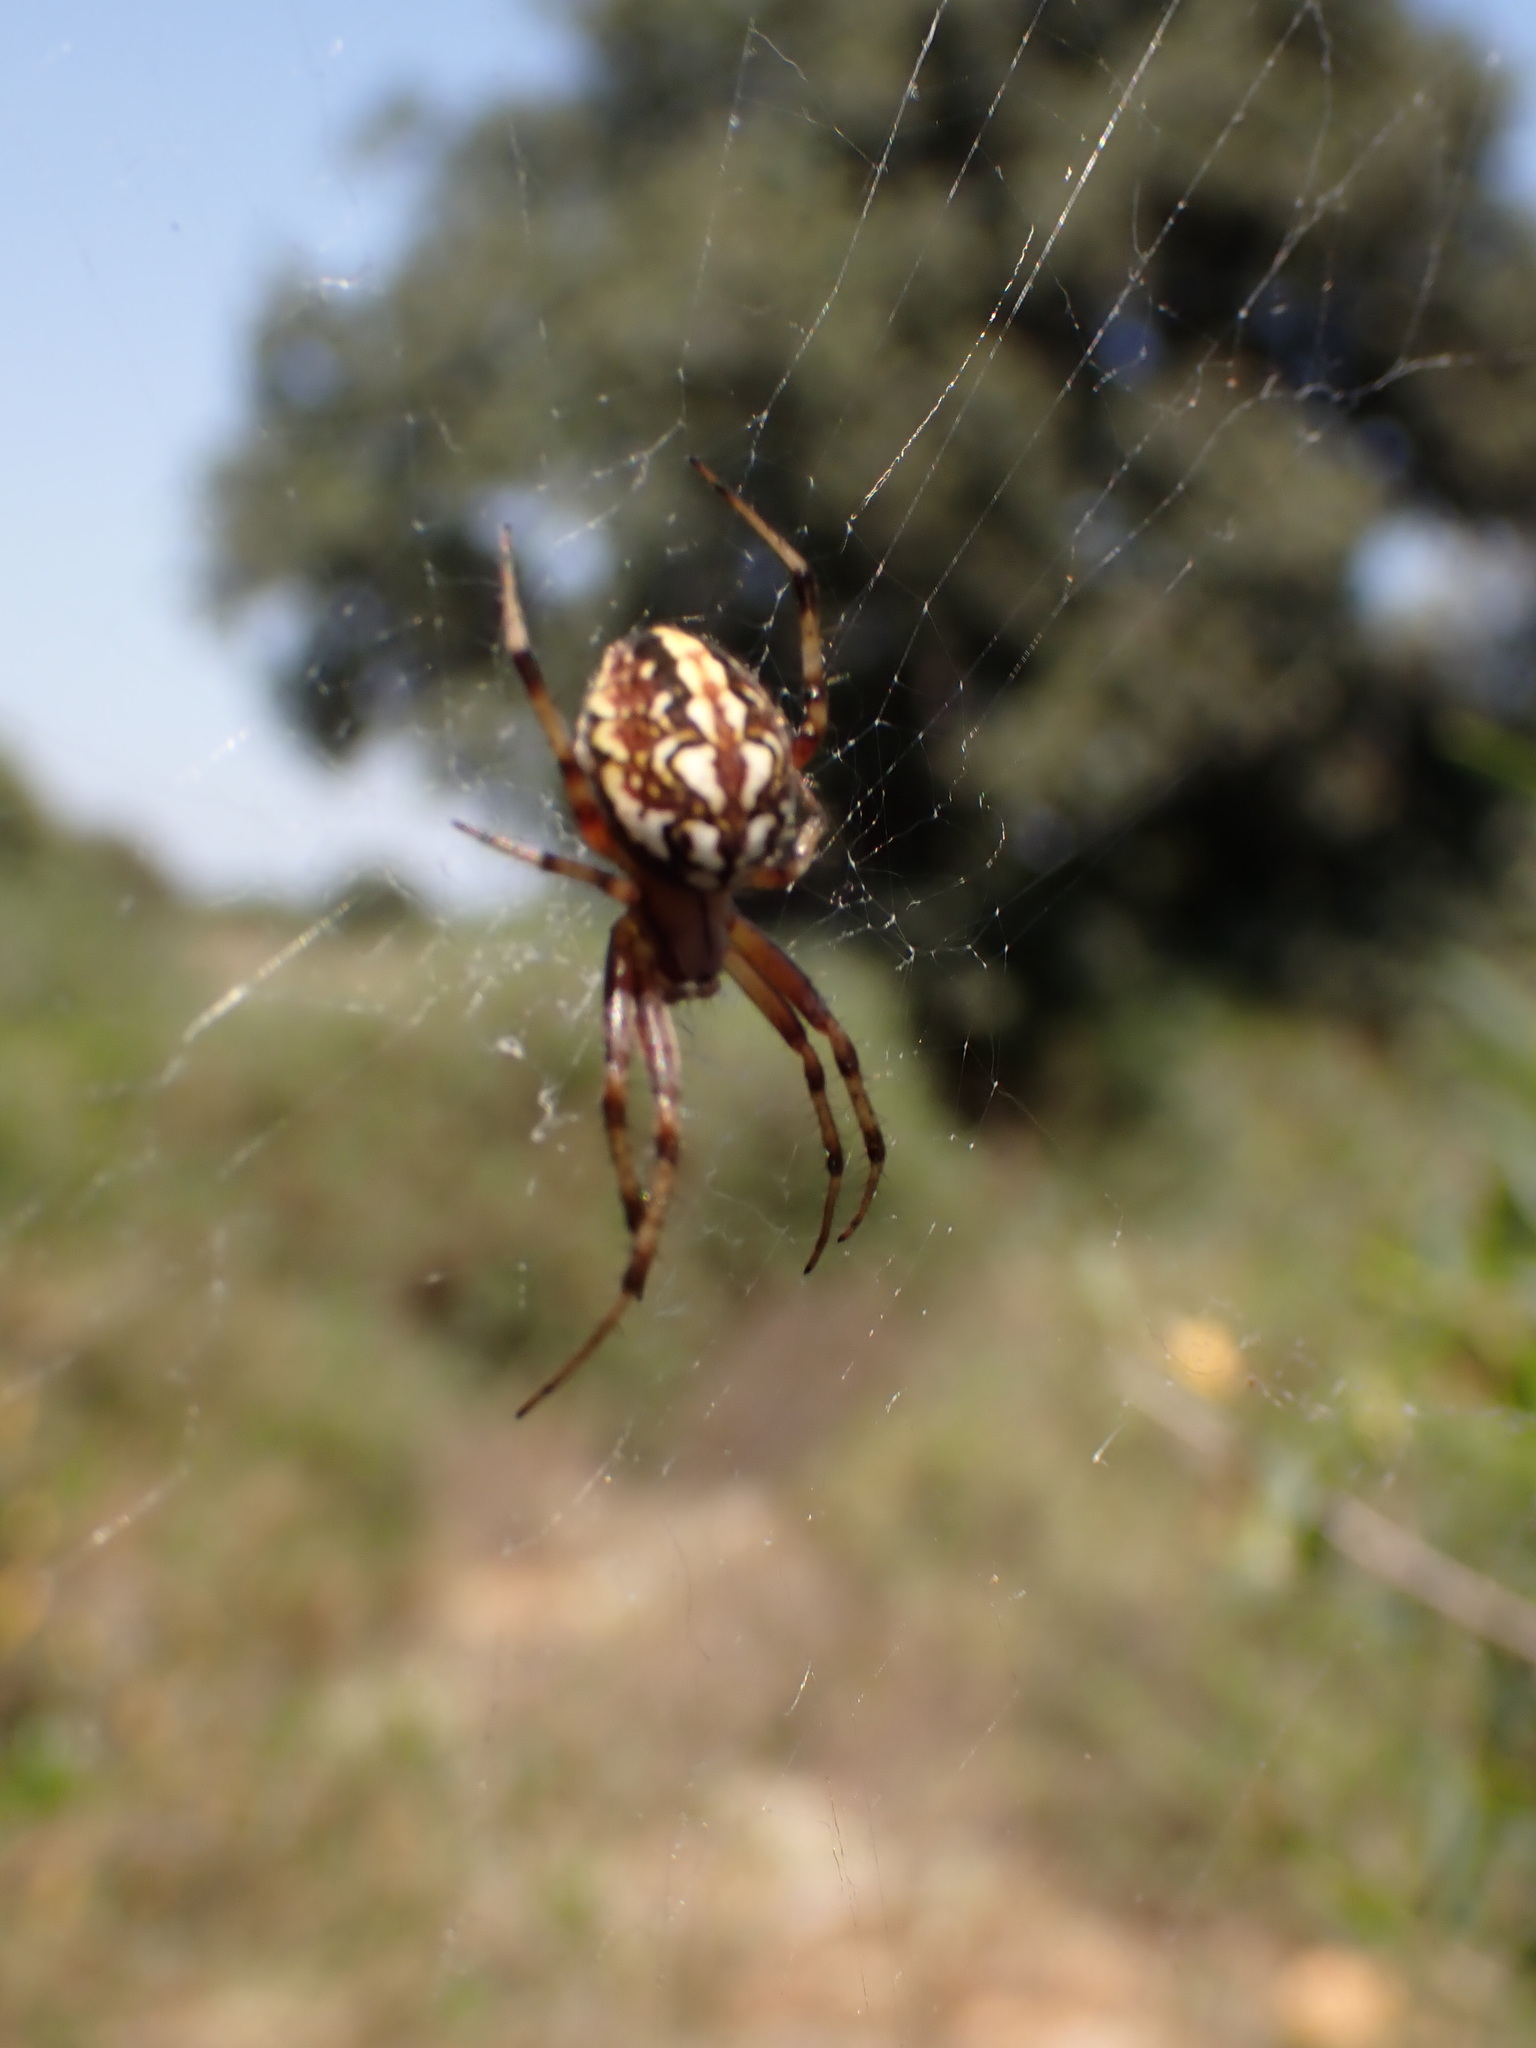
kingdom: Animalia
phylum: Arthropoda
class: Arachnida
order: Araneae
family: Araneidae
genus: Neoscona
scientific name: Neoscona adianta
